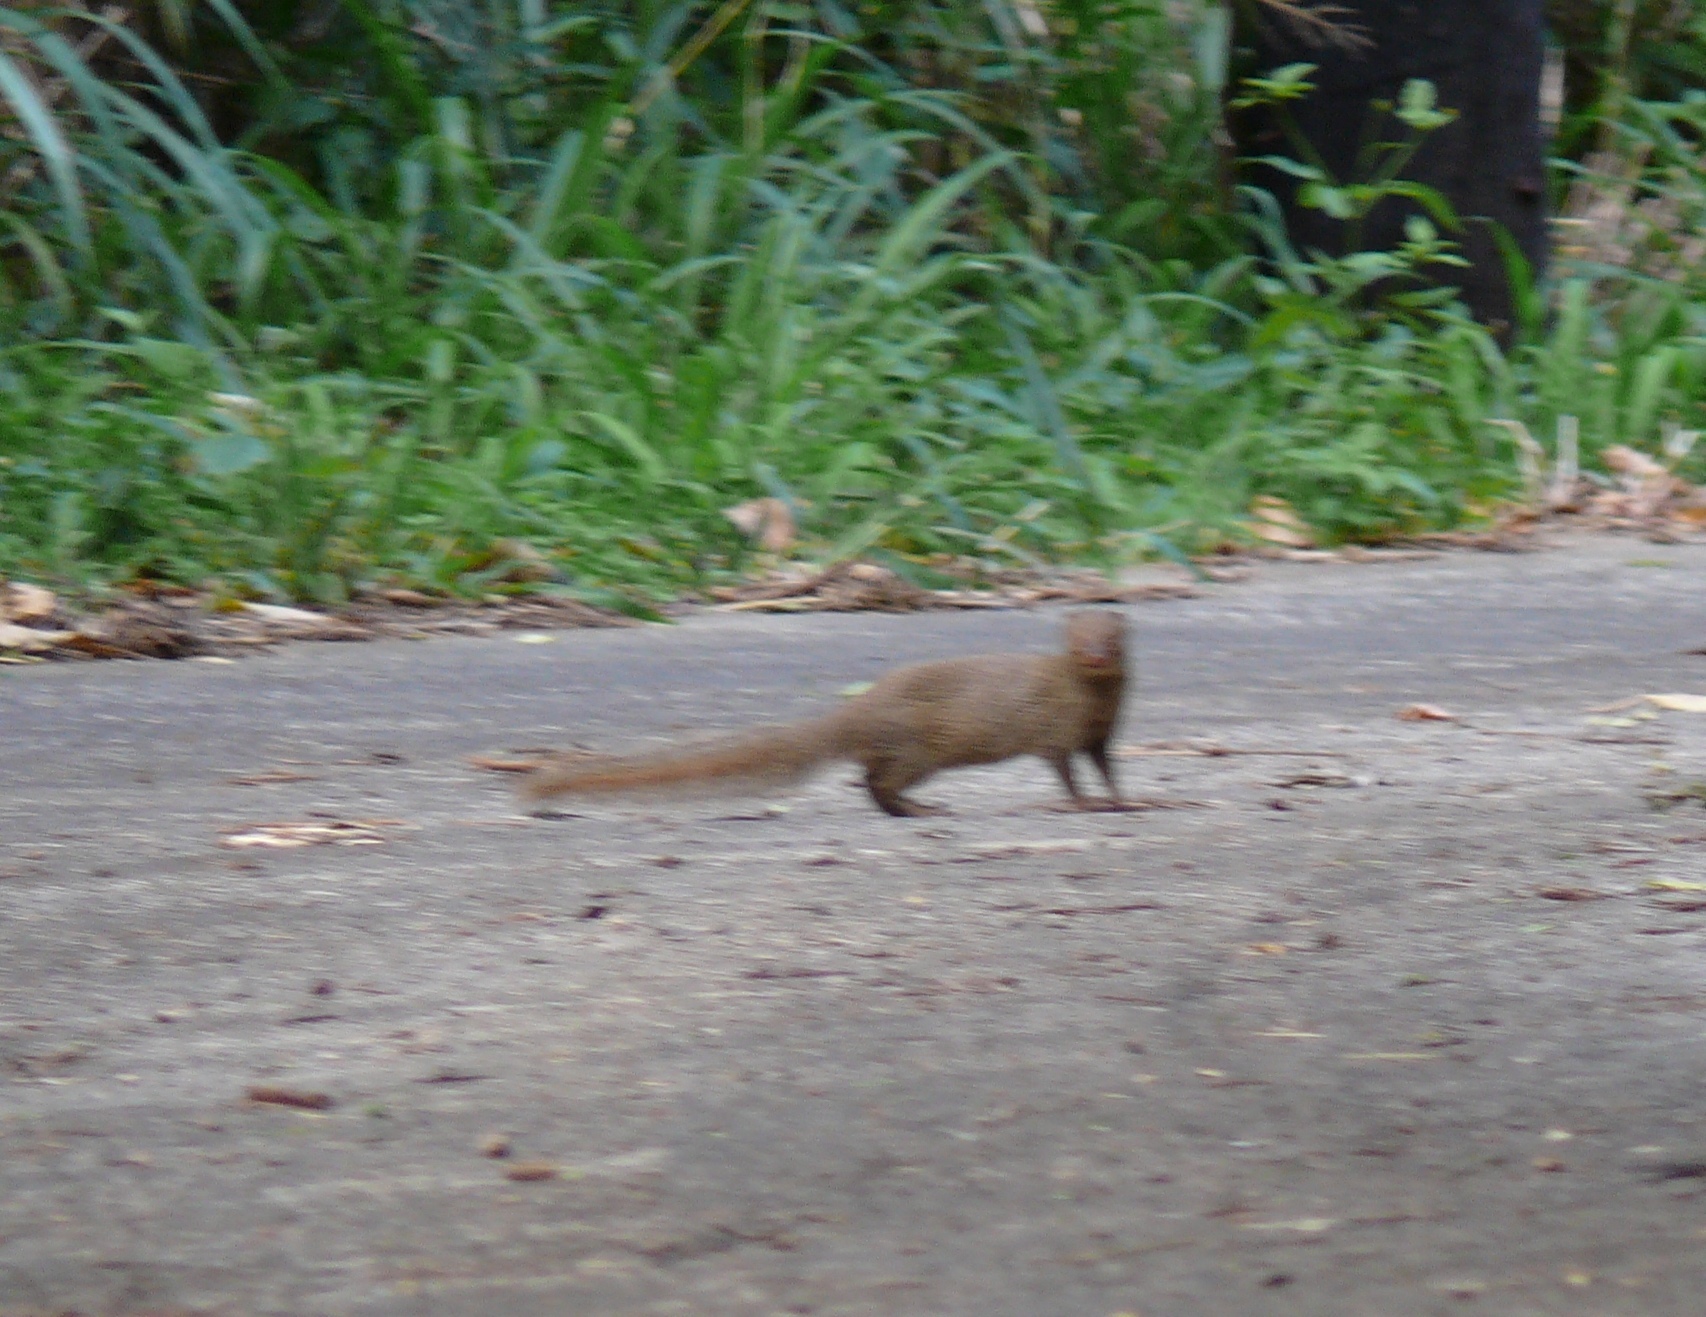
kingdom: Animalia
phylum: Chordata
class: Mammalia
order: Carnivora
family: Herpestidae
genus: Herpestes
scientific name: Herpestes javanicus
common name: Small asian mongoose
